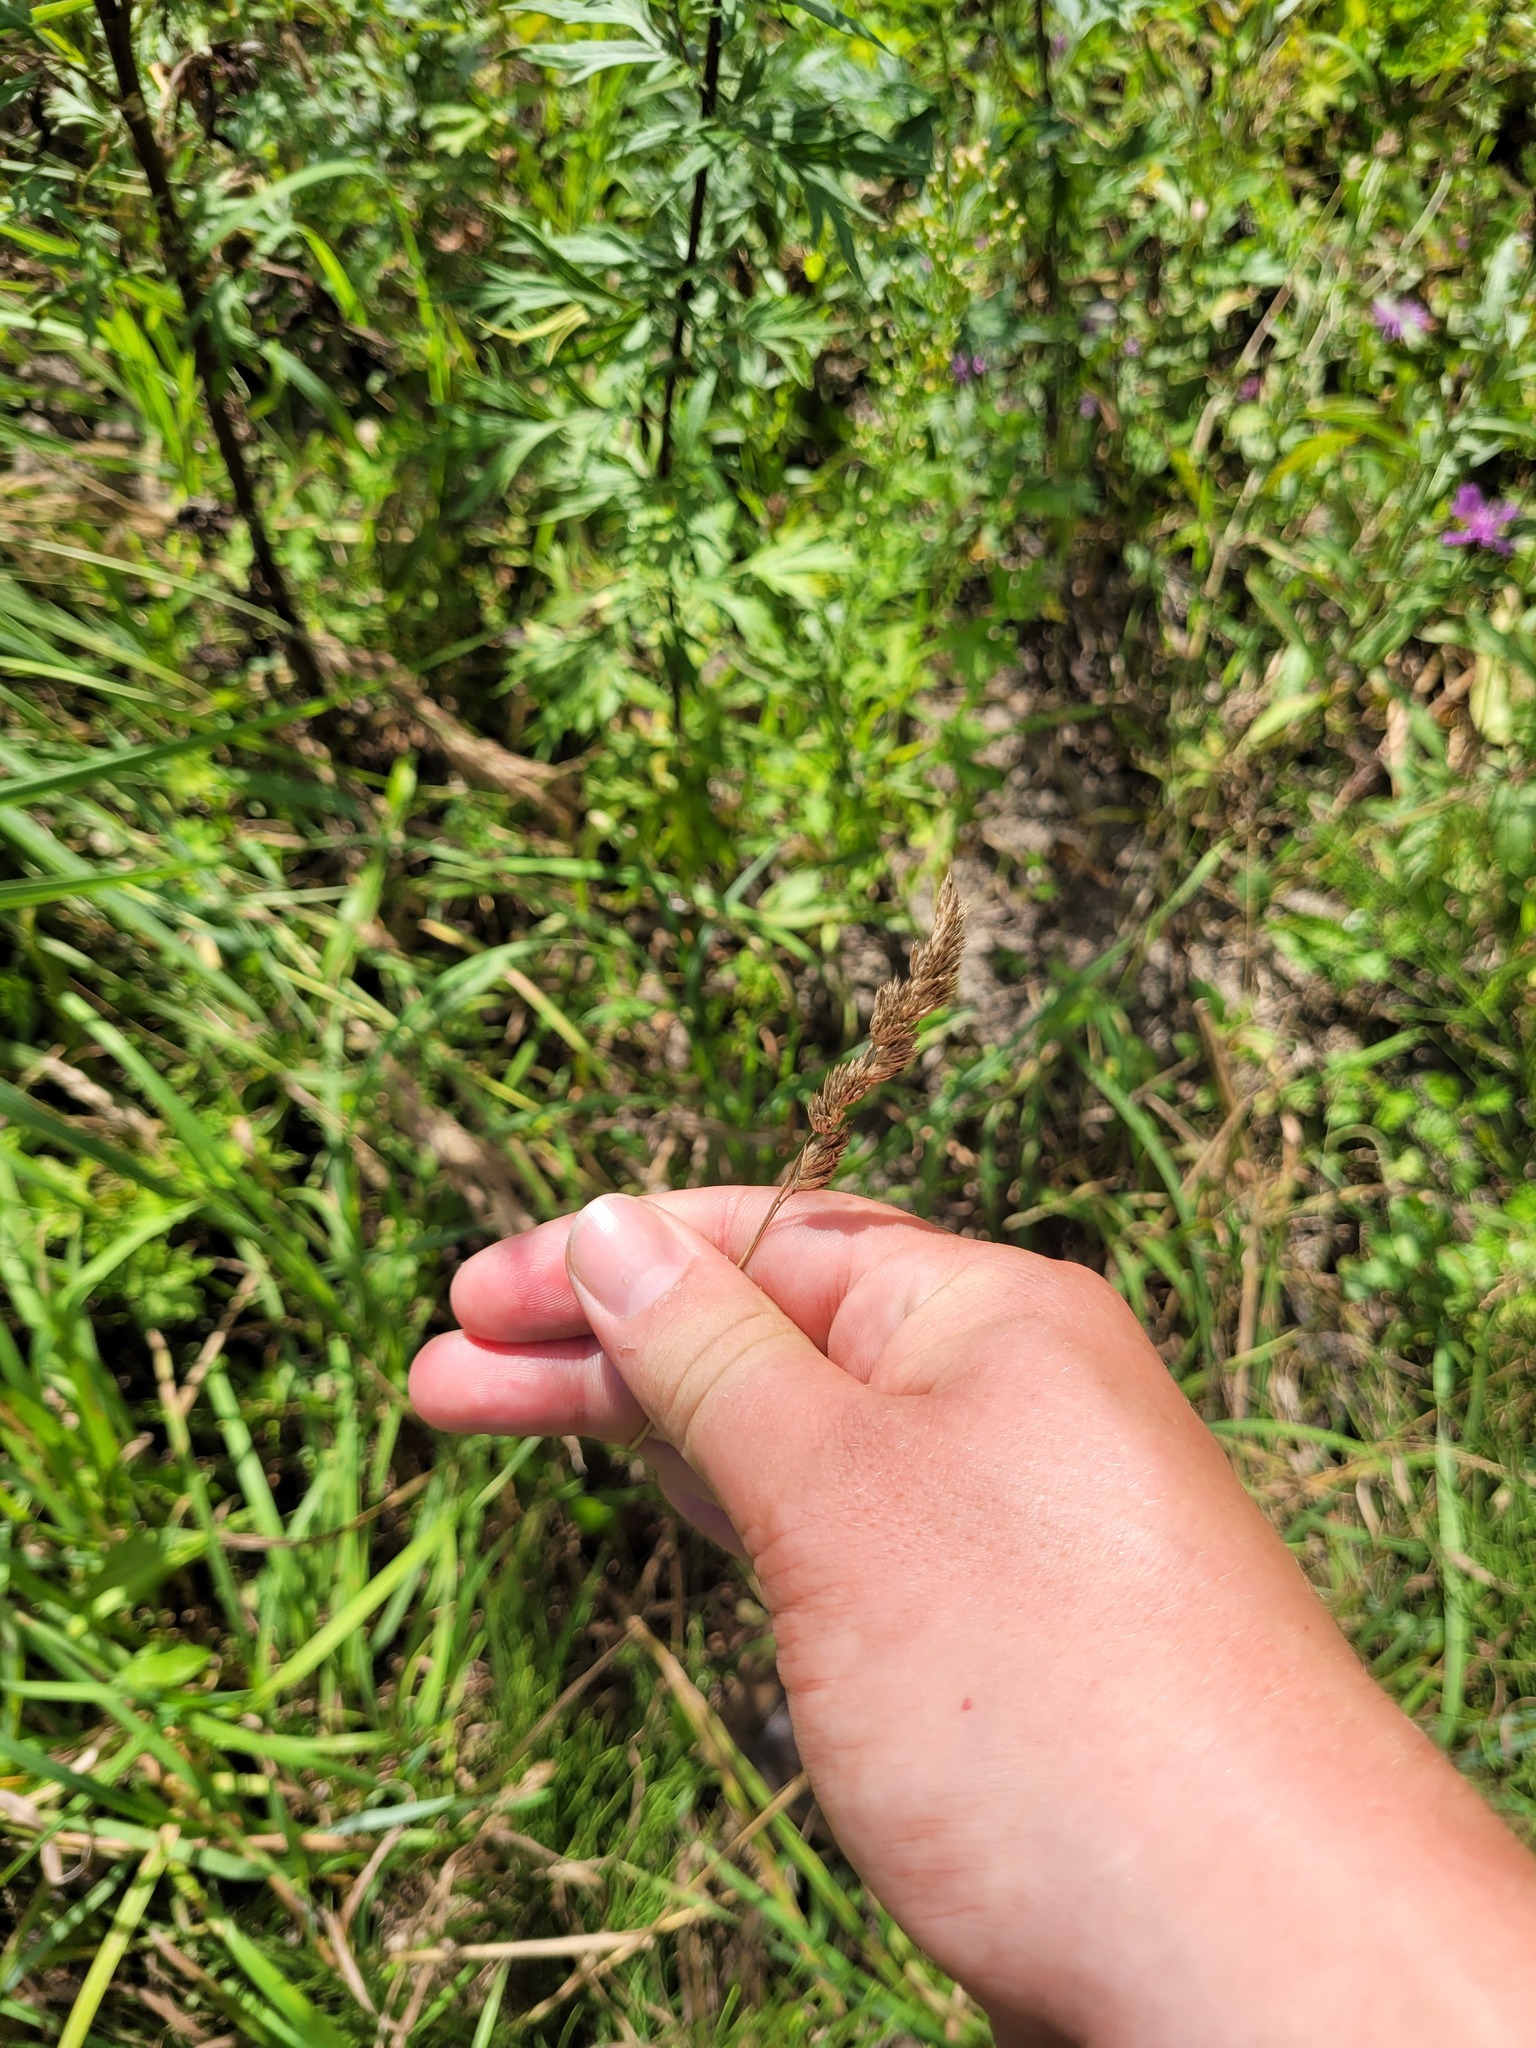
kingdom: Plantae
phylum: Tracheophyta
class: Liliopsida
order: Poales
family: Poaceae
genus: Dactylis
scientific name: Dactylis glomerata
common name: Orchardgrass
